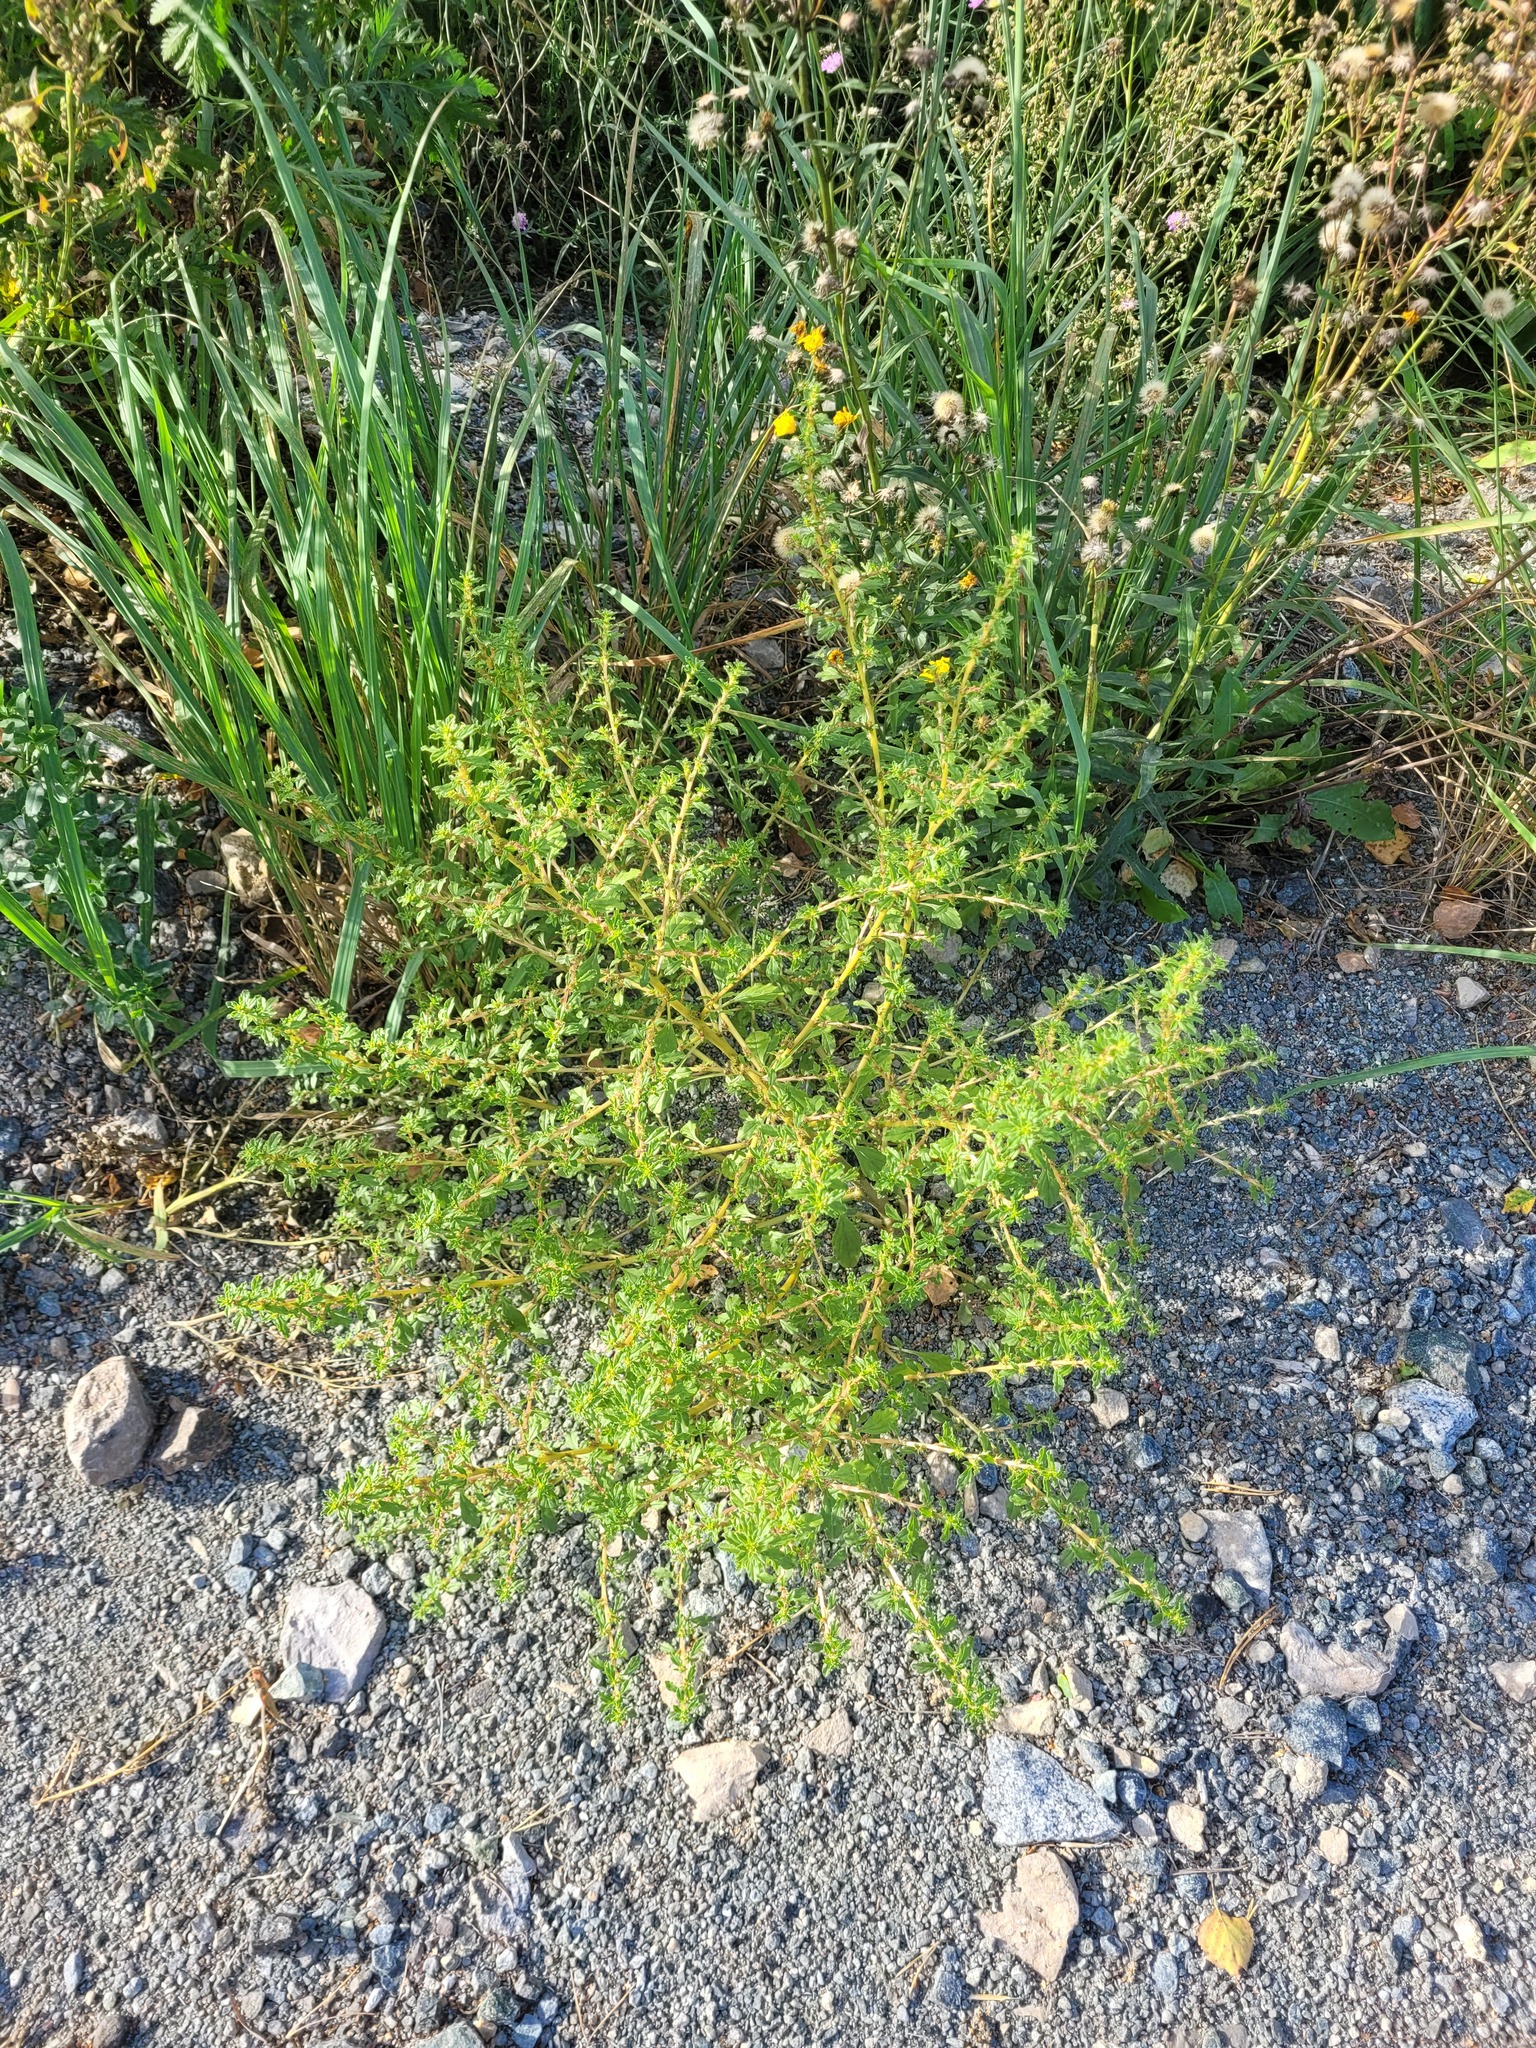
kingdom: Plantae
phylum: Tracheophyta
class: Magnoliopsida
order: Caryophyllales
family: Amaranthaceae
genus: Amaranthus
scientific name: Amaranthus albus
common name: White pigweed
